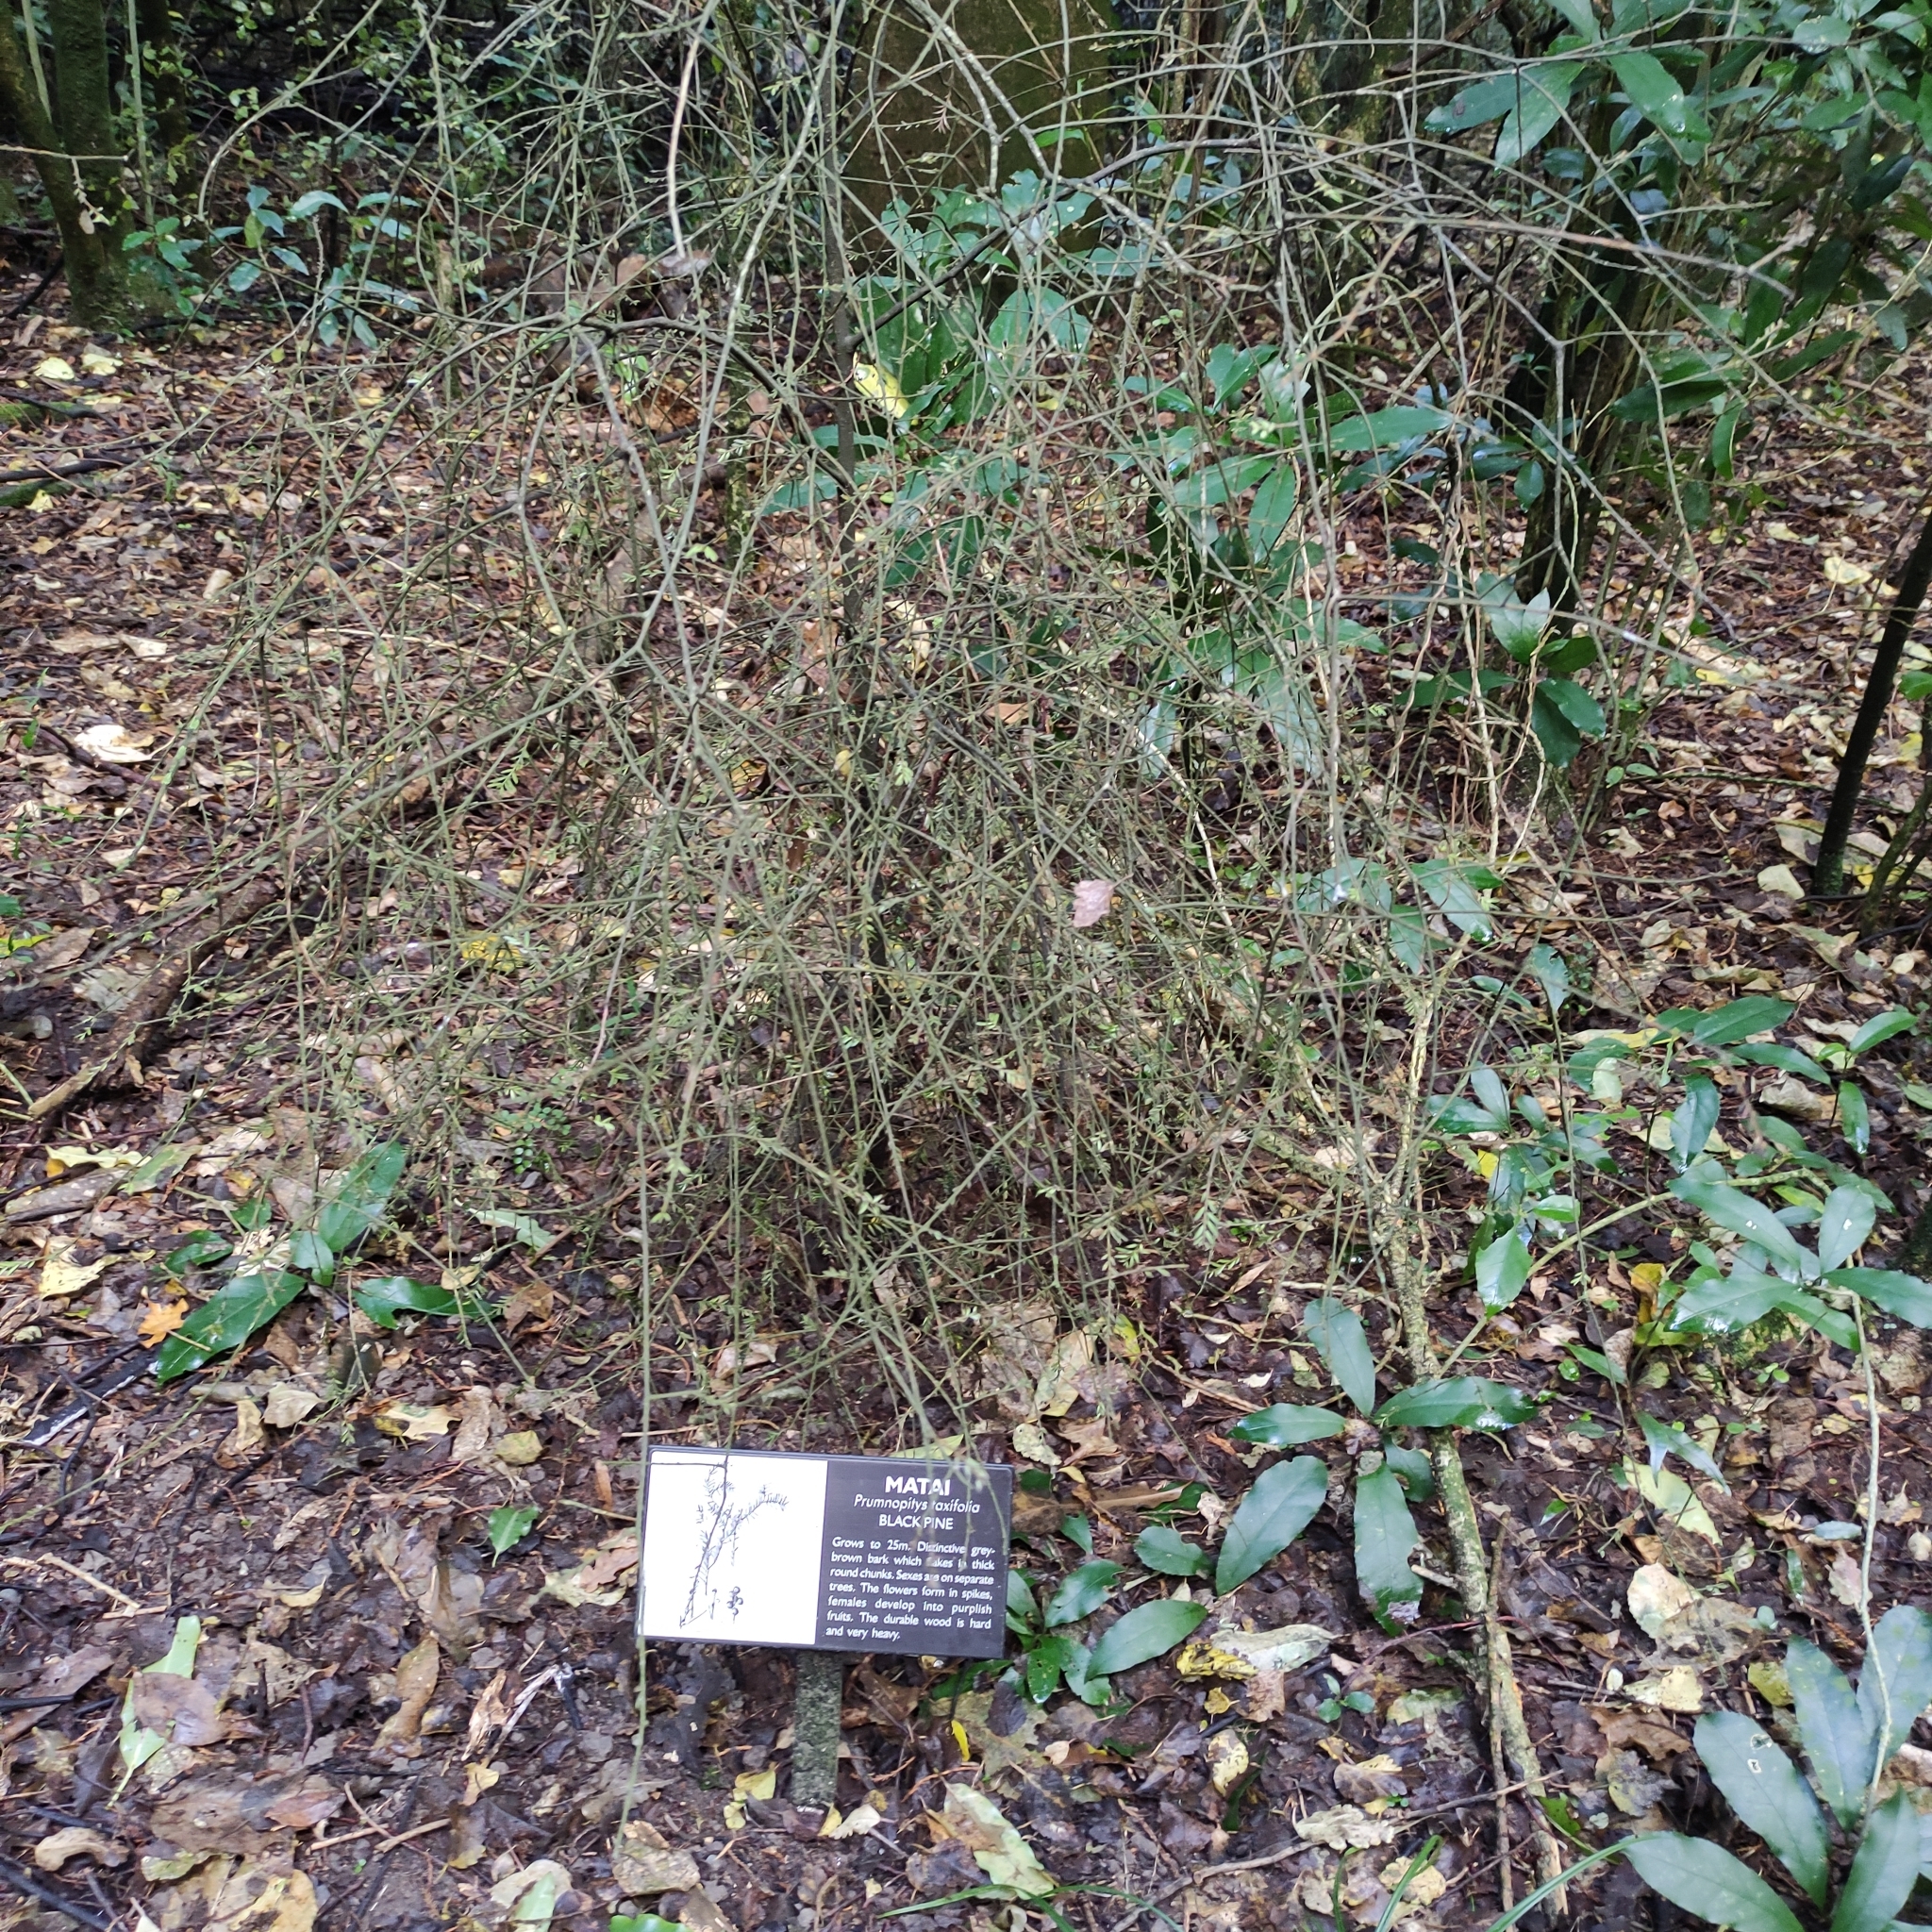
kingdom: Plantae
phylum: Tracheophyta
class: Pinopsida
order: Pinales
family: Podocarpaceae
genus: Prumnopitys
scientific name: Prumnopitys taxifolia
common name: Matai
